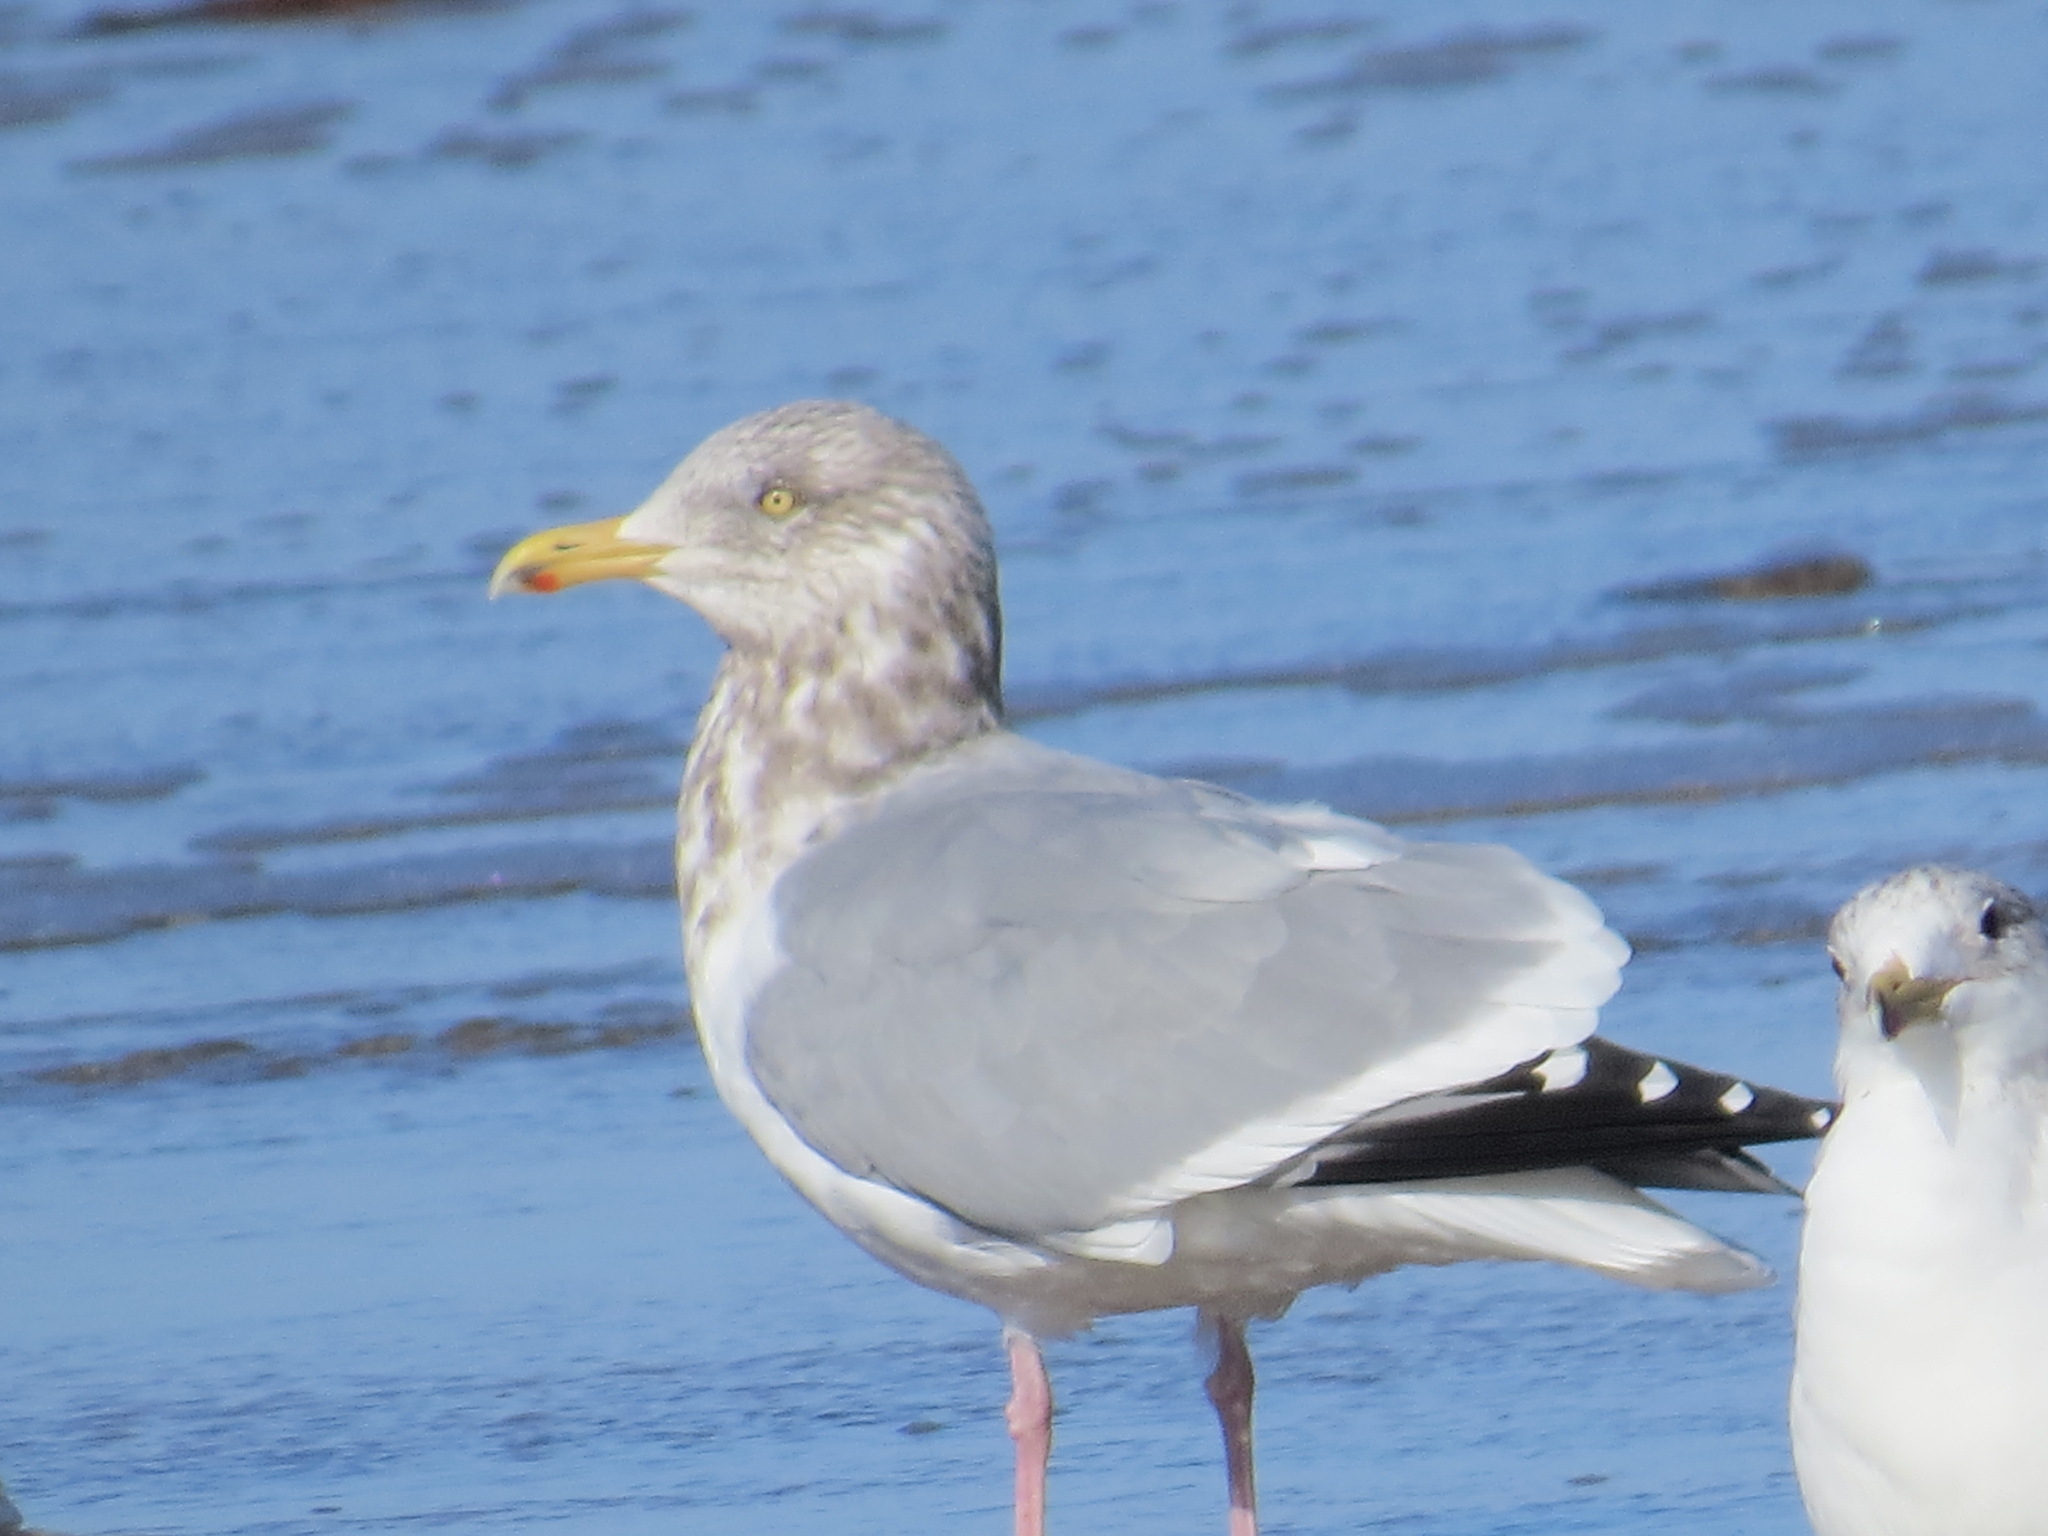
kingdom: Animalia
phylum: Chordata
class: Aves
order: Charadriiformes
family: Laridae
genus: Larus
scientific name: Larus argentatus
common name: Herring gull
